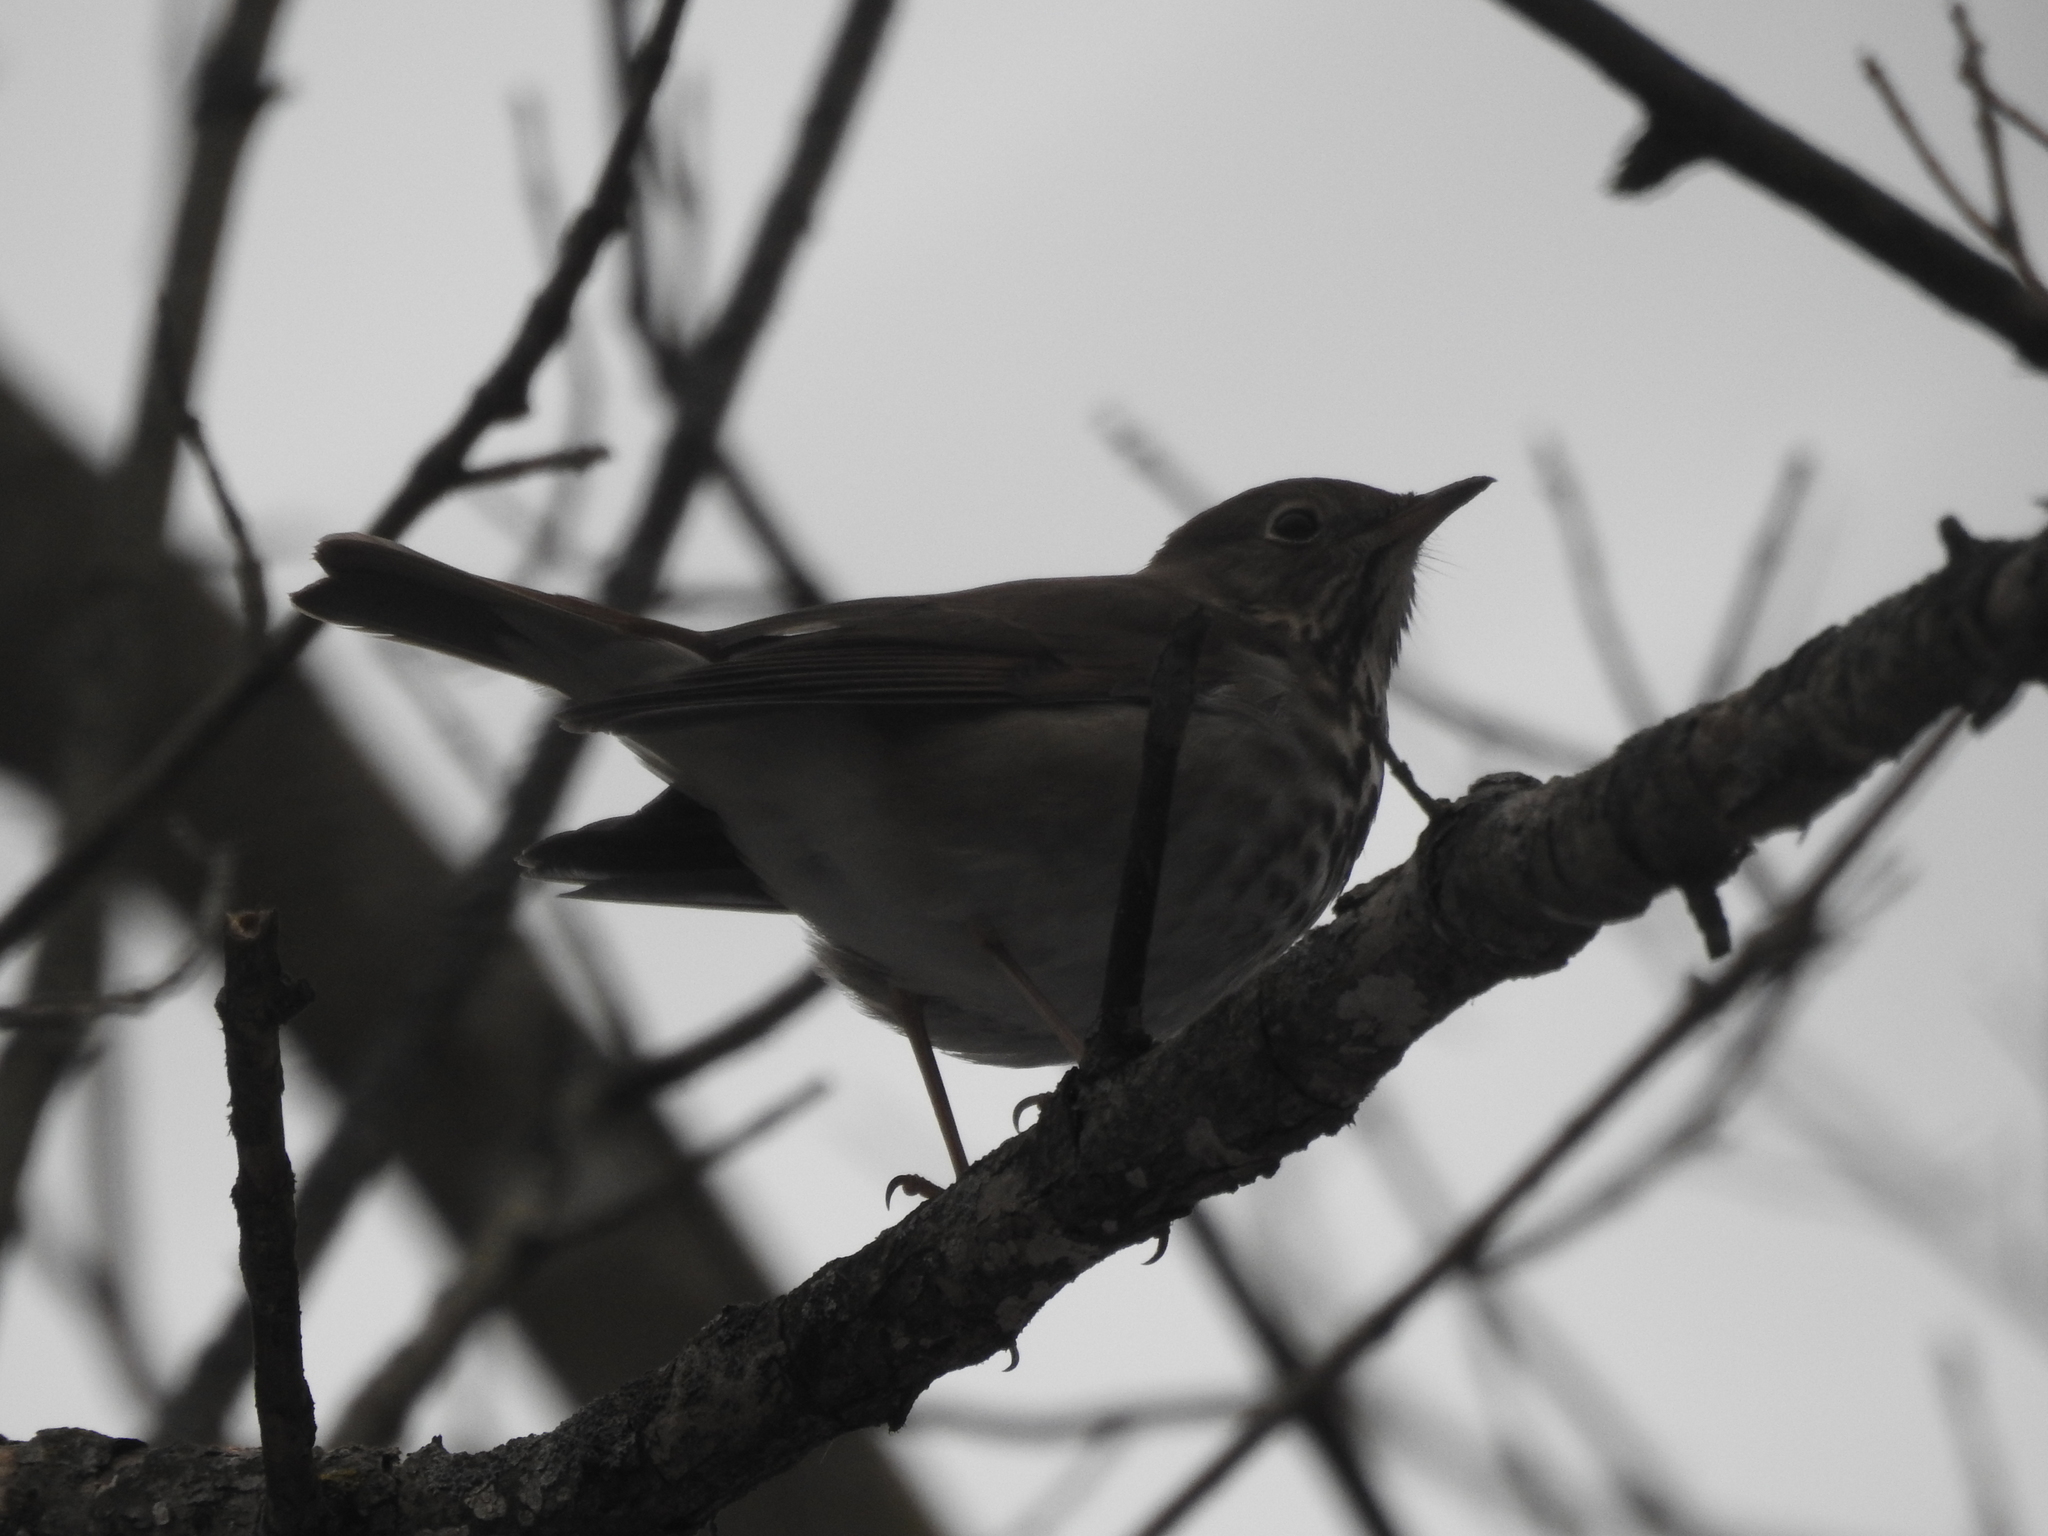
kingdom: Animalia
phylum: Chordata
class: Aves
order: Passeriformes
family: Turdidae
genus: Catharus
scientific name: Catharus guttatus
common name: Hermit thrush
